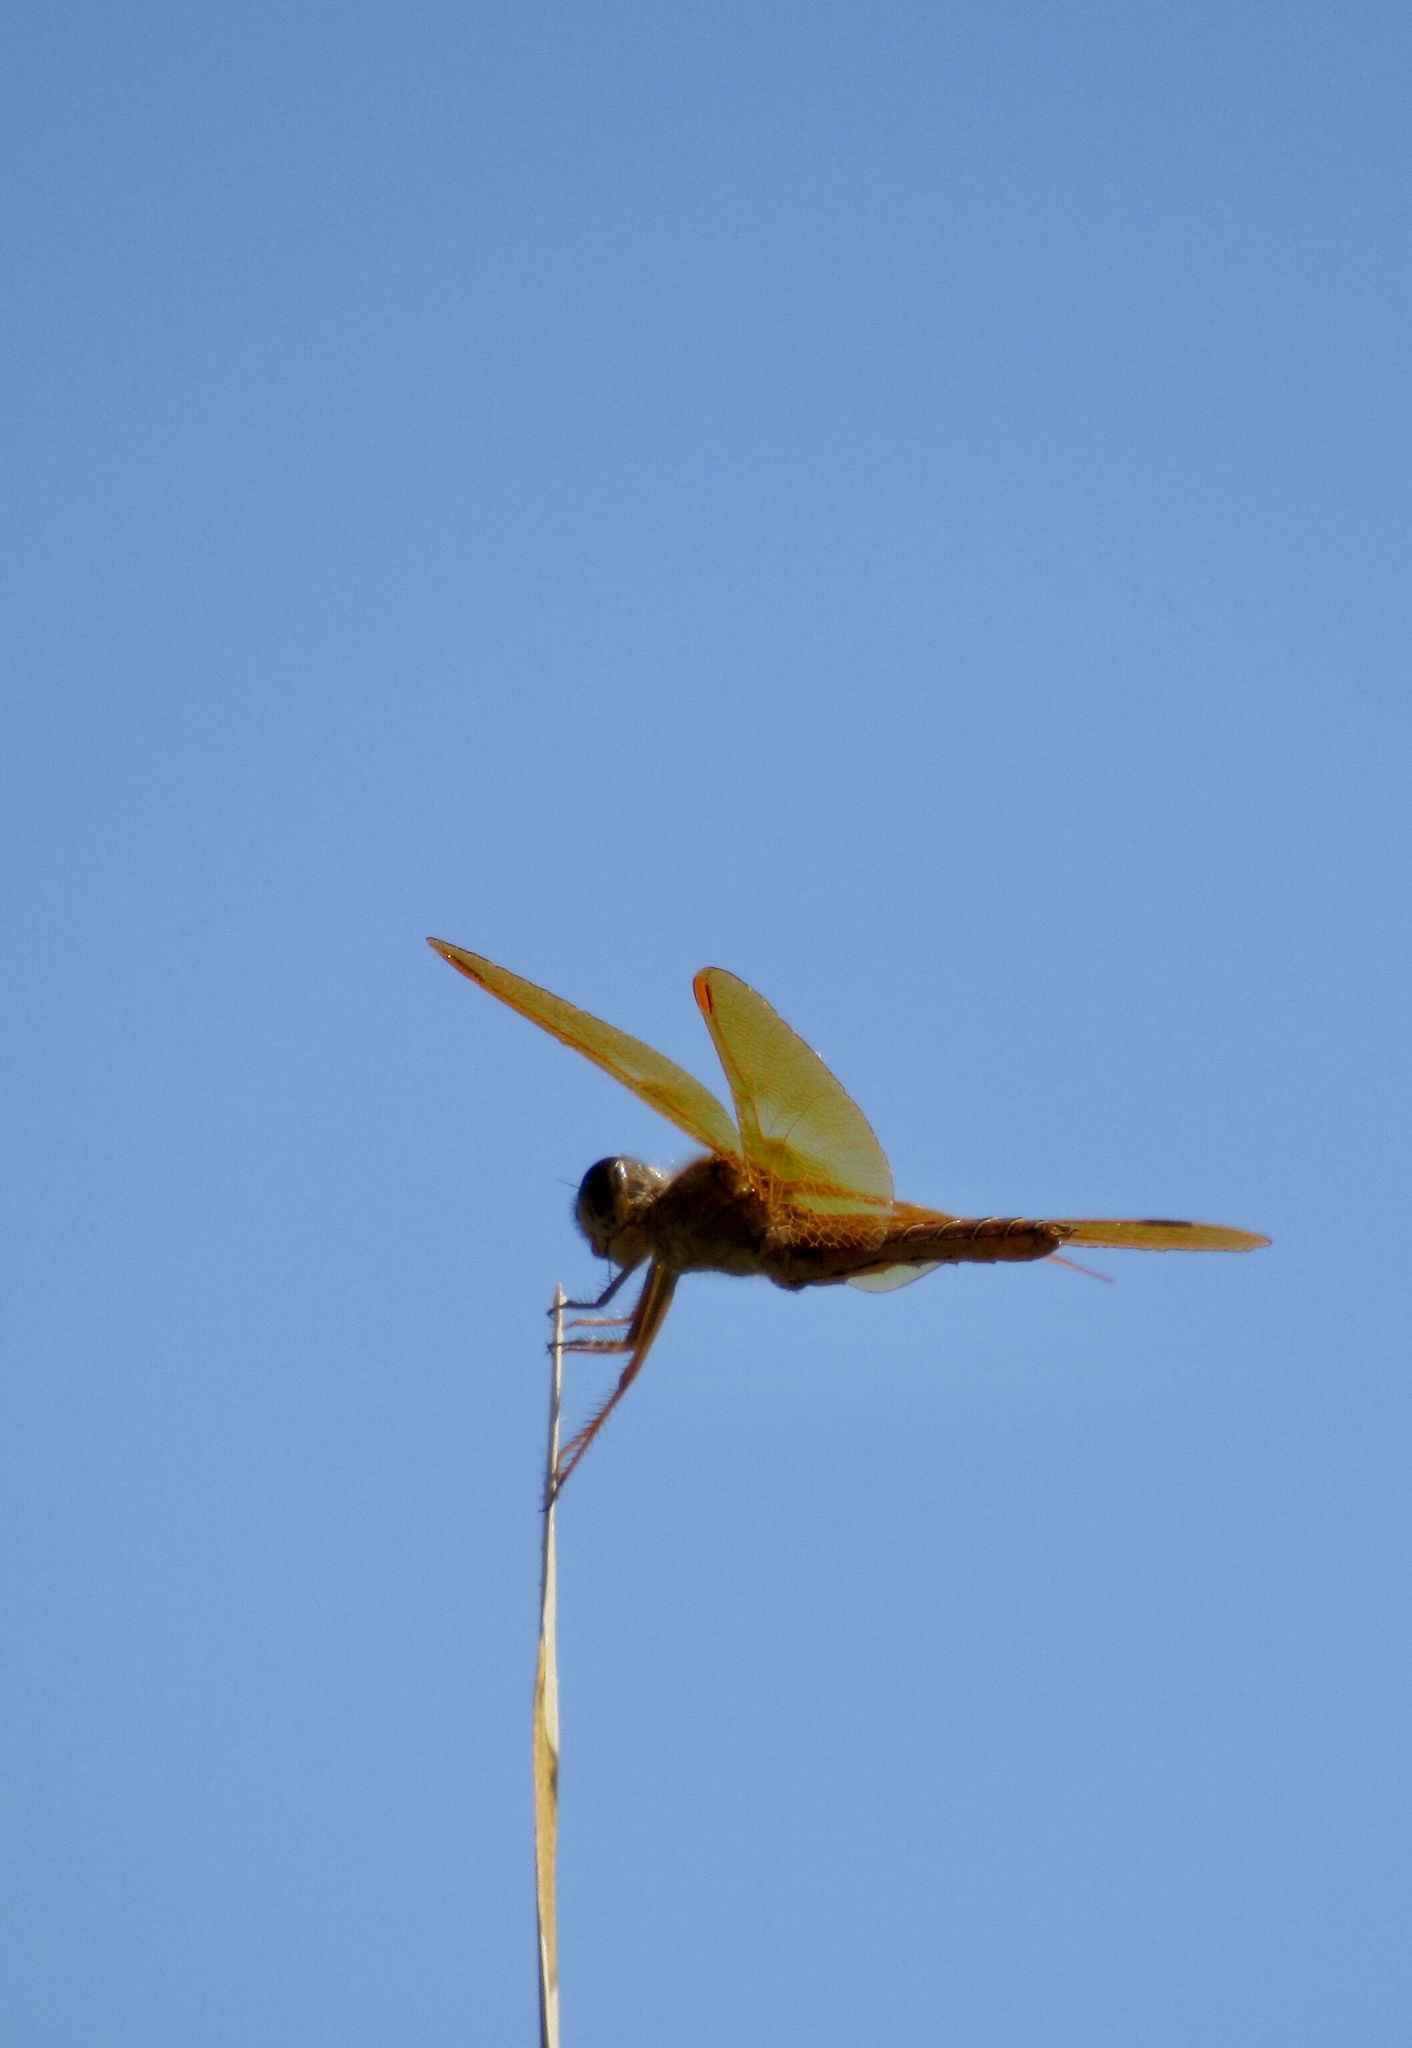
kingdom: Animalia
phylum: Arthropoda
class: Insecta
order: Odonata
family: Libellulidae
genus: Perithemis
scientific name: Perithemis intensa
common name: Mexican amberwing
